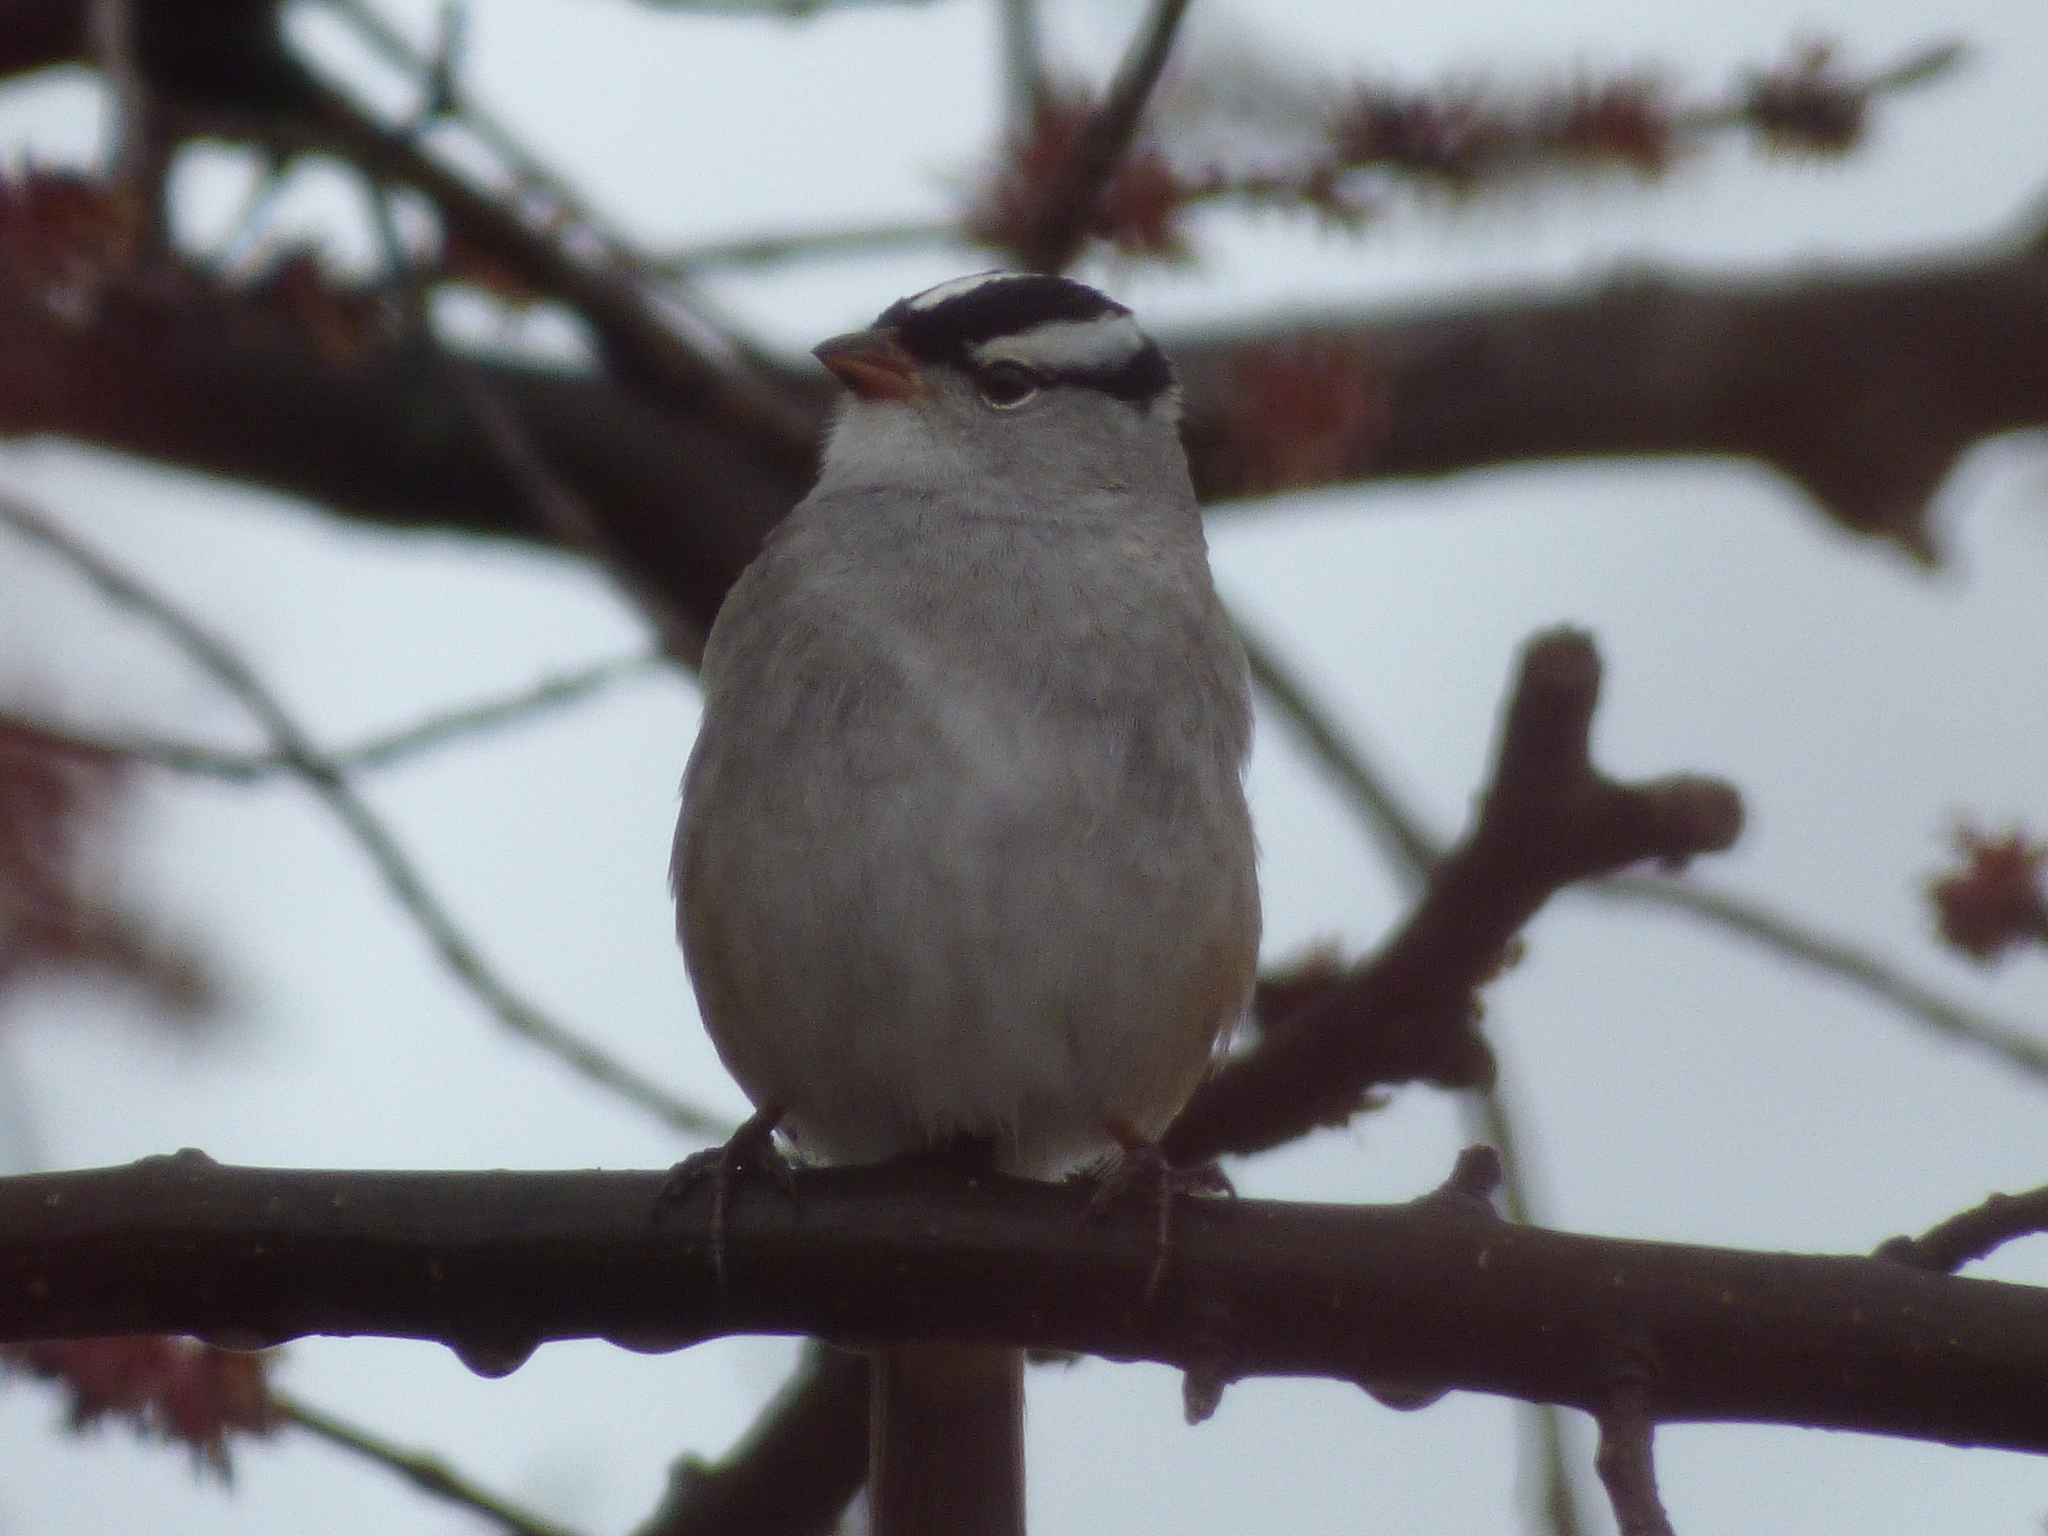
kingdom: Animalia
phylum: Chordata
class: Aves
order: Passeriformes
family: Passerellidae
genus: Zonotrichia
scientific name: Zonotrichia leucophrys
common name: White-crowned sparrow
